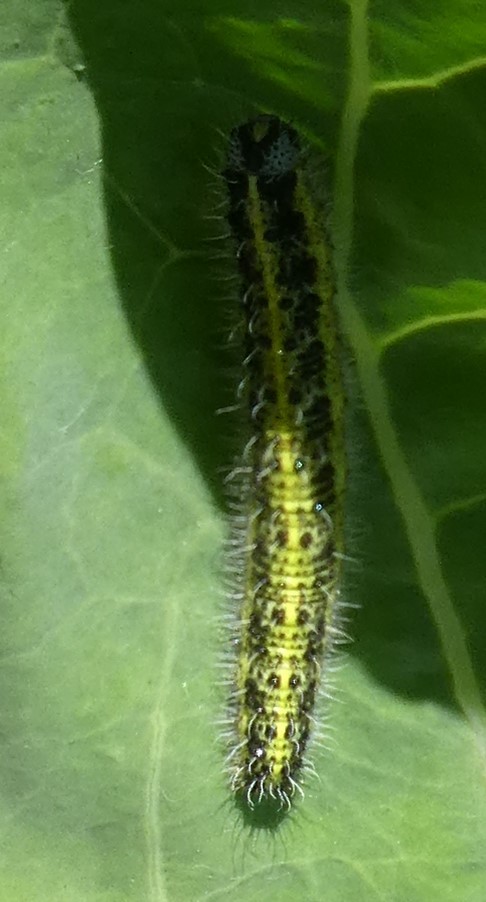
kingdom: Animalia
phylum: Arthropoda
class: Insecta
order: Lepidoptera
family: Pieridae
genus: Pieris
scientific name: Pieris brassicae
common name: Large white
